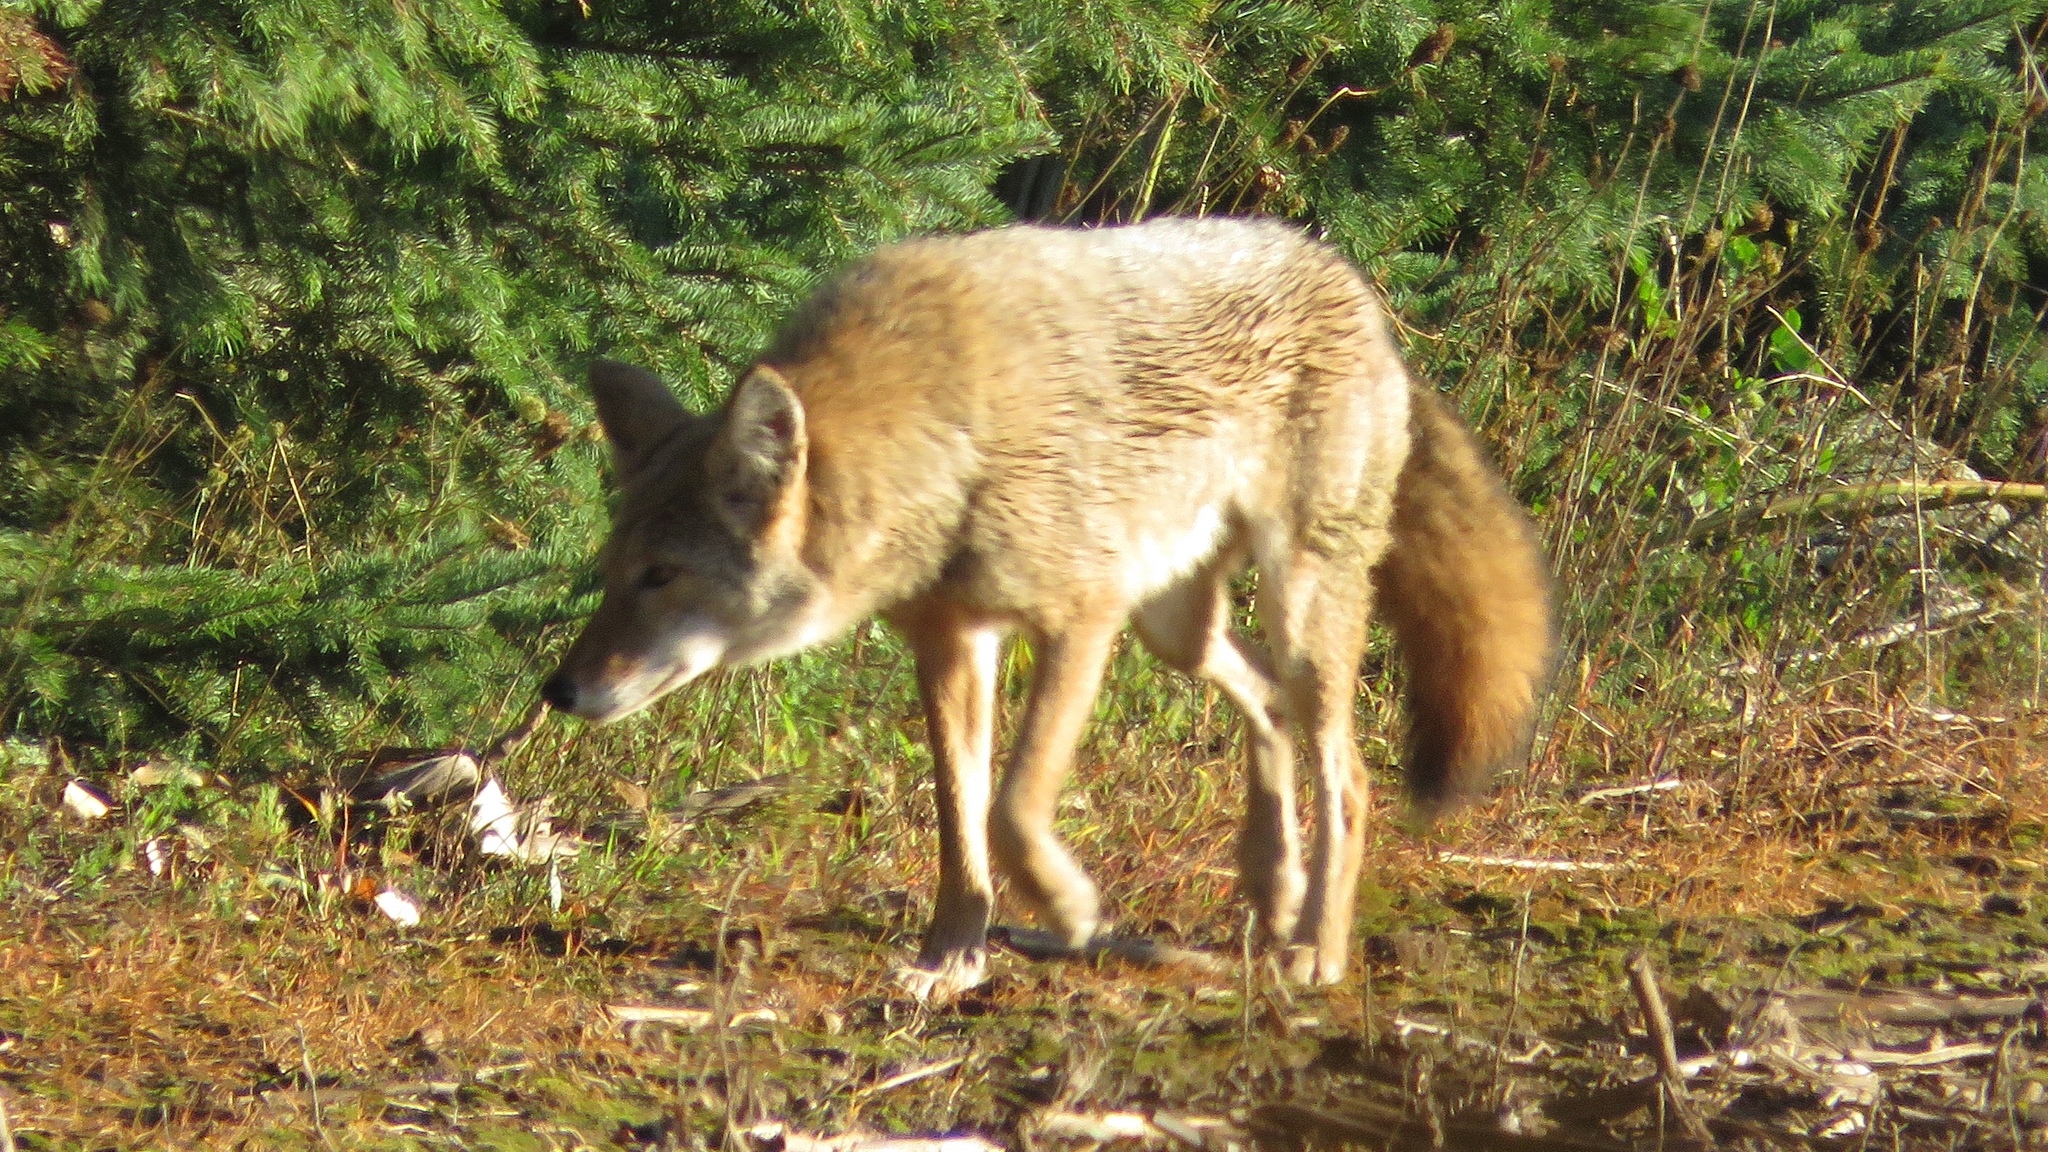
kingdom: Animalia
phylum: Chordata
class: Mammalia
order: Carnivora
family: Canidae
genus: Canis
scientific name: Canis latrans
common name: Coyote
